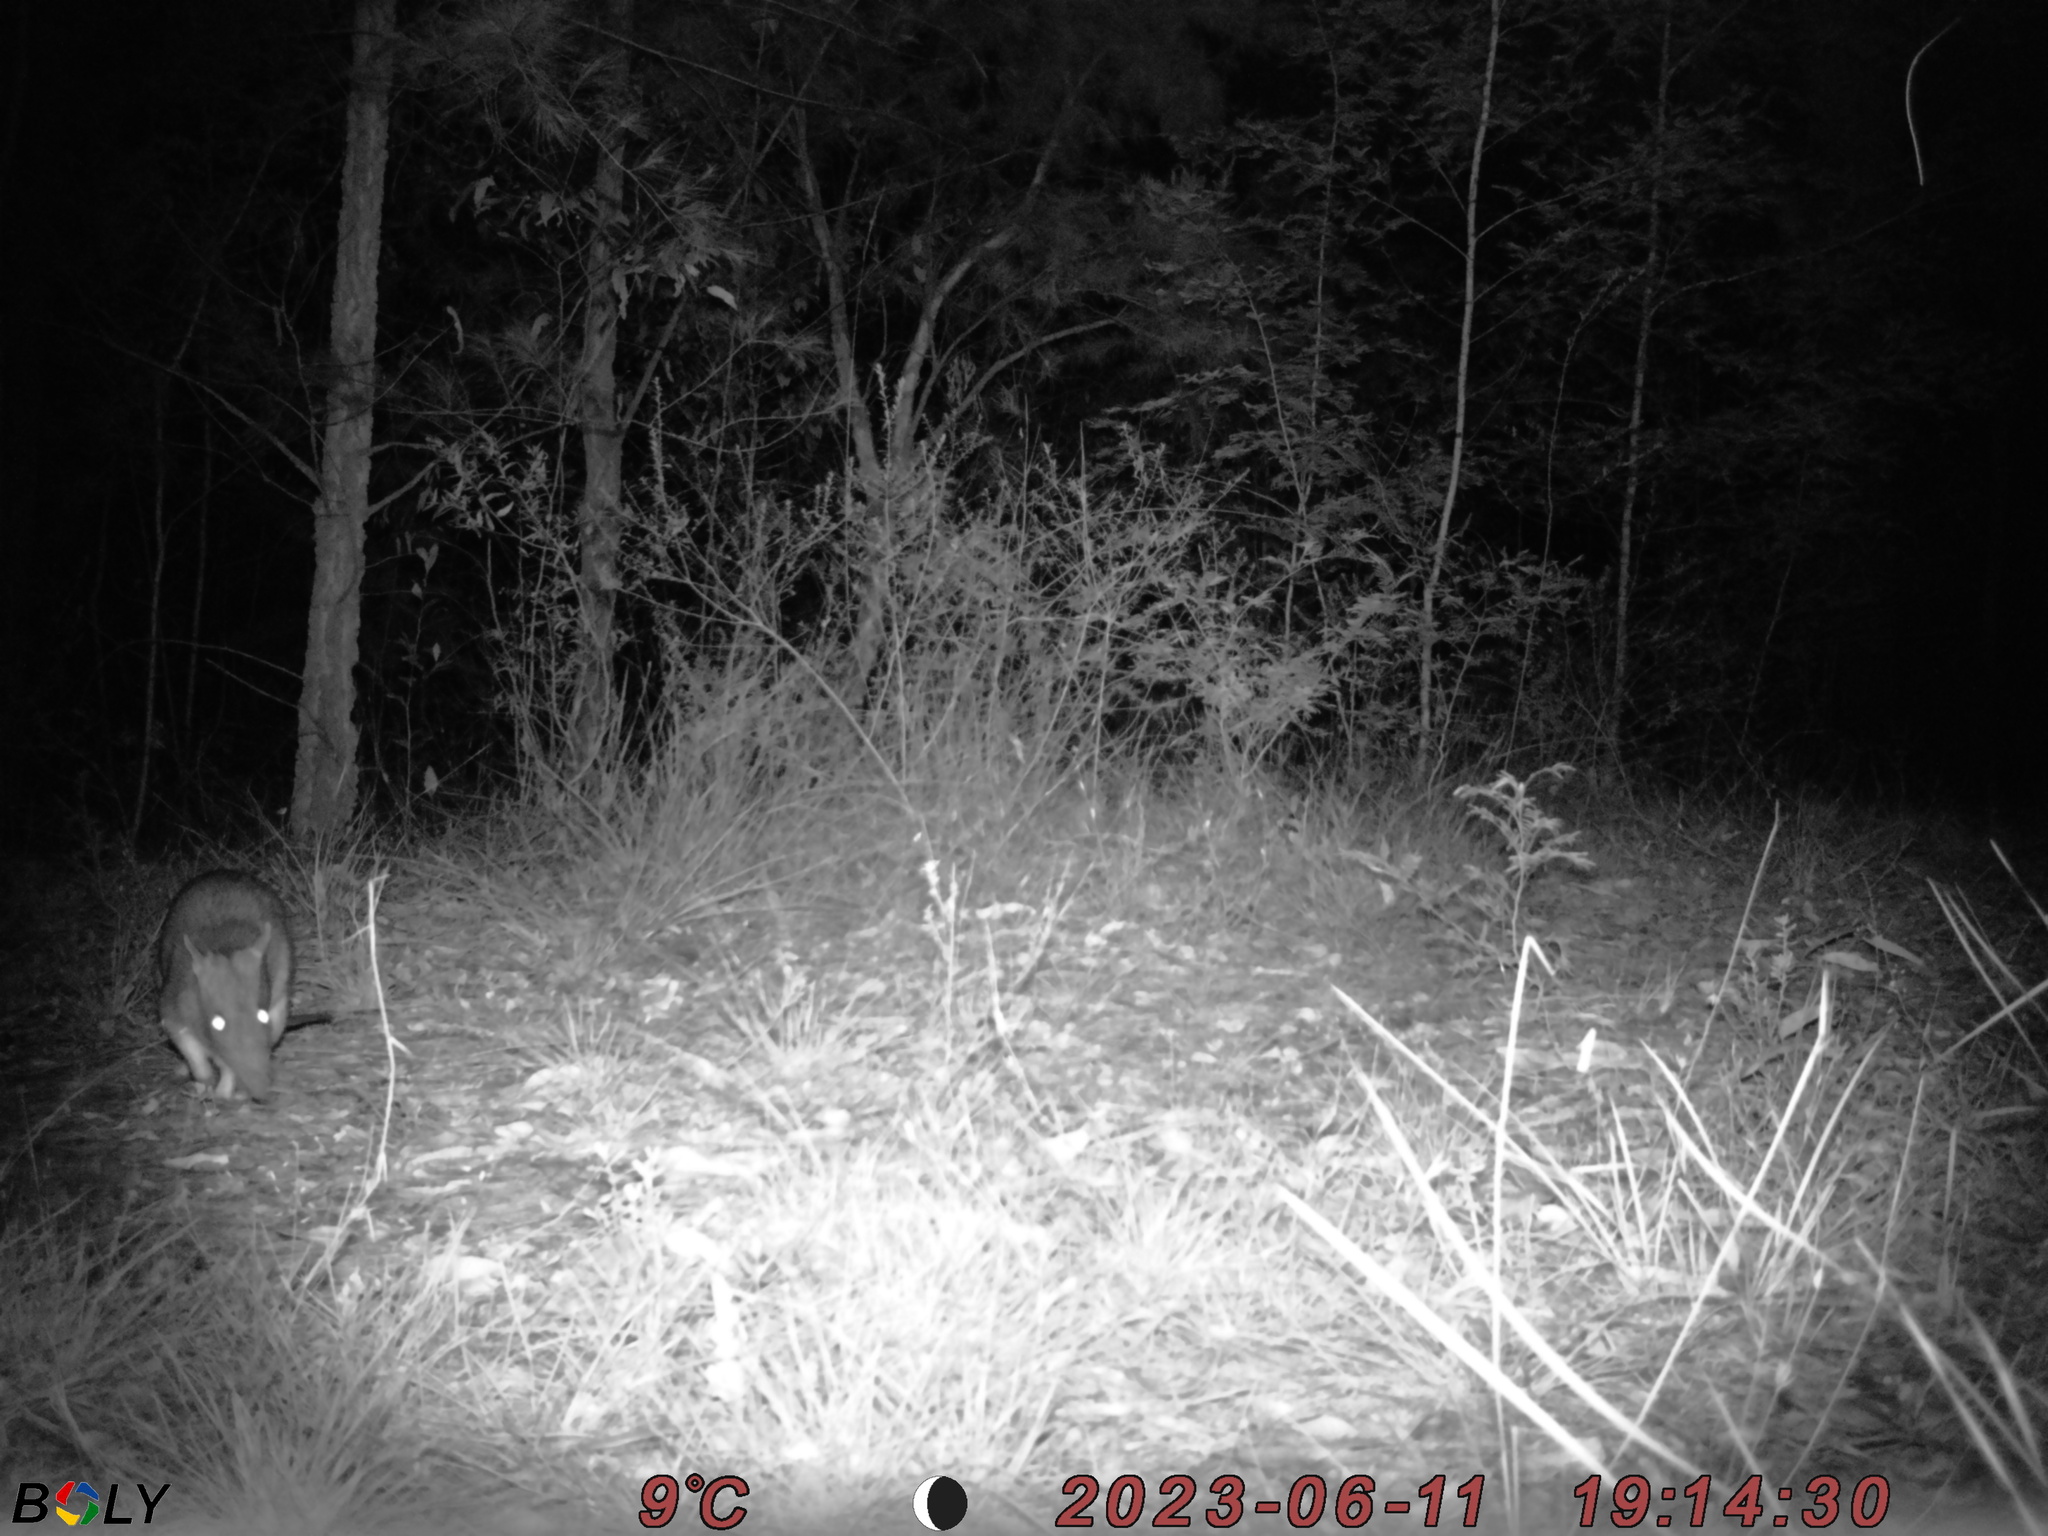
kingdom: Animalia
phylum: Chordata
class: Mammalia
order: Peramelemorphia
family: Peramelidae
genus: Perameles
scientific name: Perameles nasuta
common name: Long-nosed bandicoot
